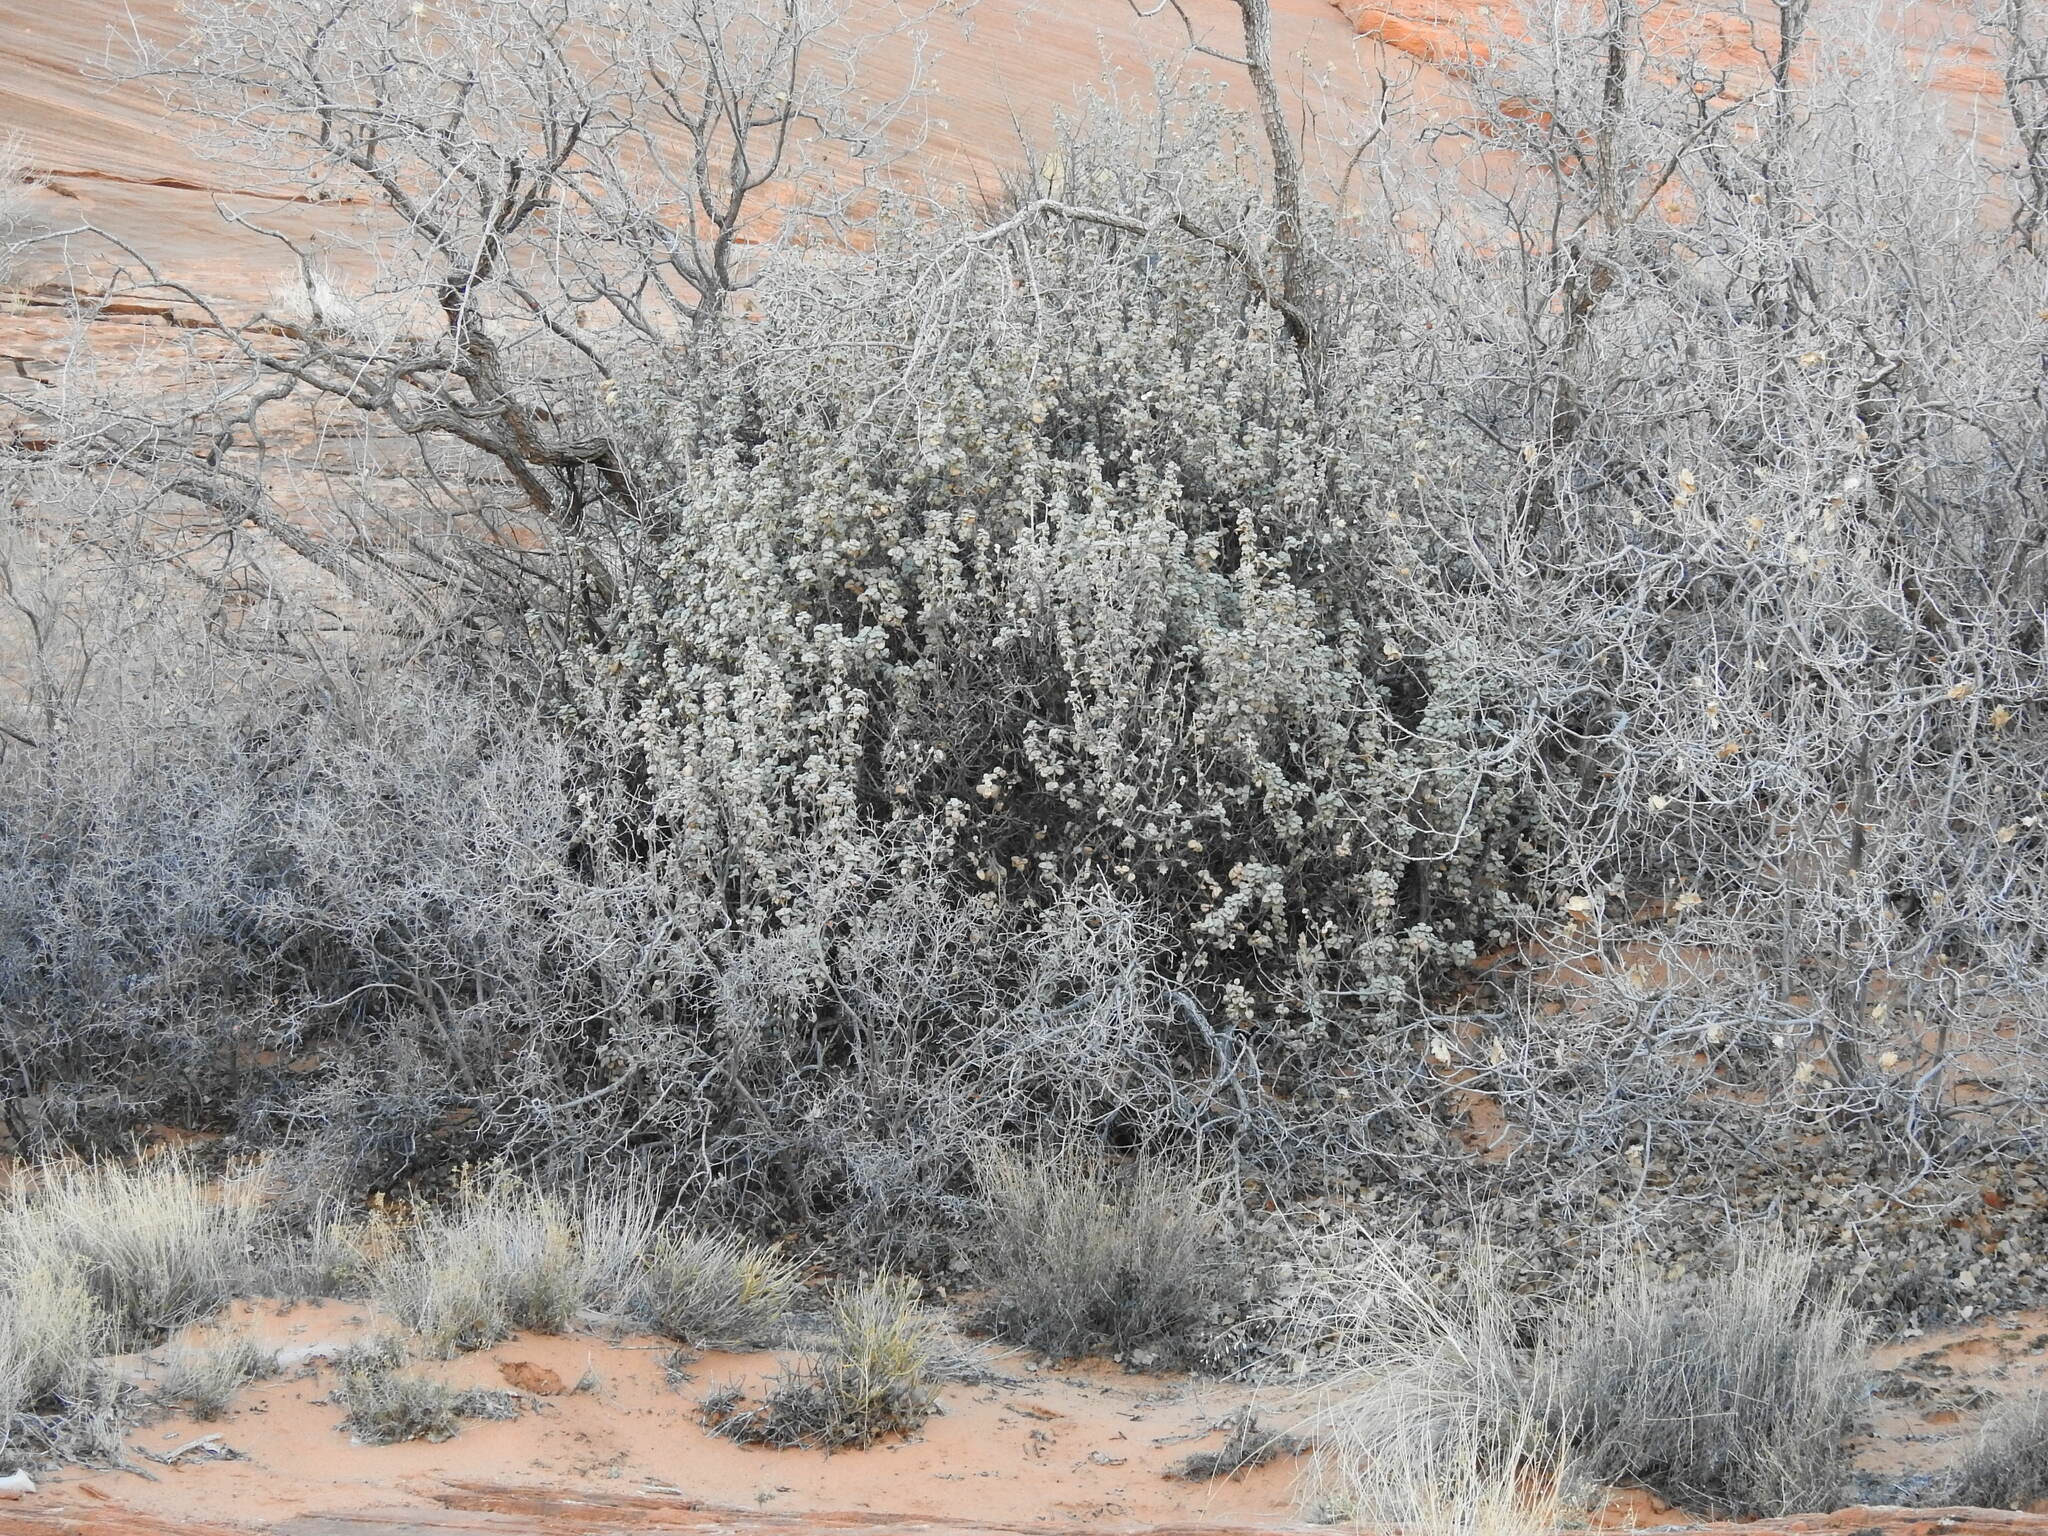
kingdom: Plantae
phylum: Tracheophyta
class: Magnoliopsida
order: Rosales
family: Elaeagnaceae
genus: Shepherdia
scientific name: Shepherdia rotundifolia
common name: Silverscale
